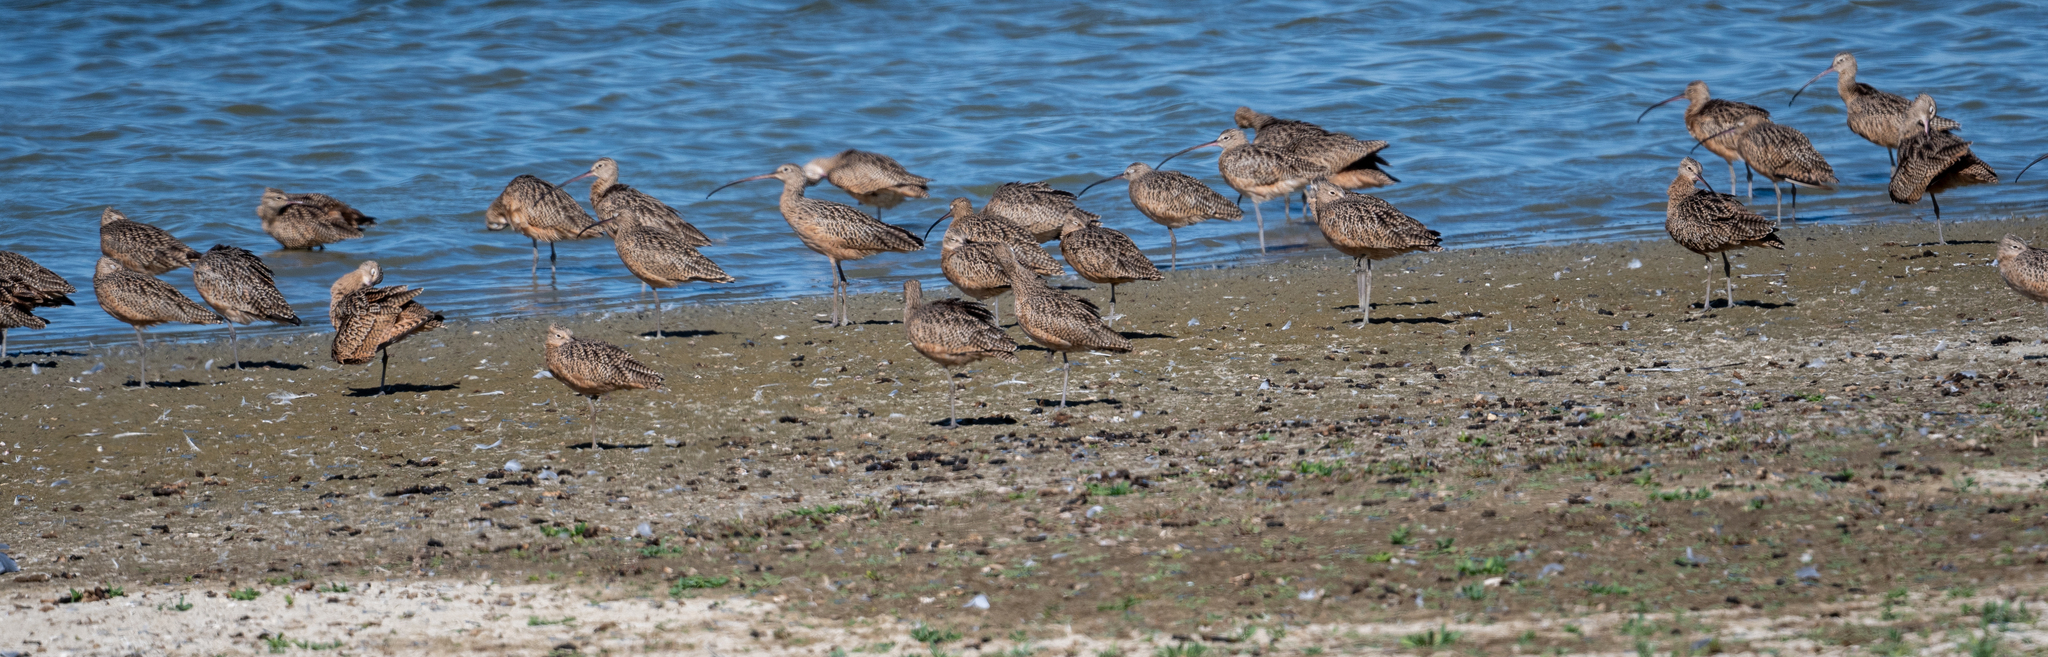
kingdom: Animalia
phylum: Chordata
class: Aves
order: Charadriiformes
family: Scolopacidae
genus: Numenius
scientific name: Numenius americanus
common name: Long-billed curlew
